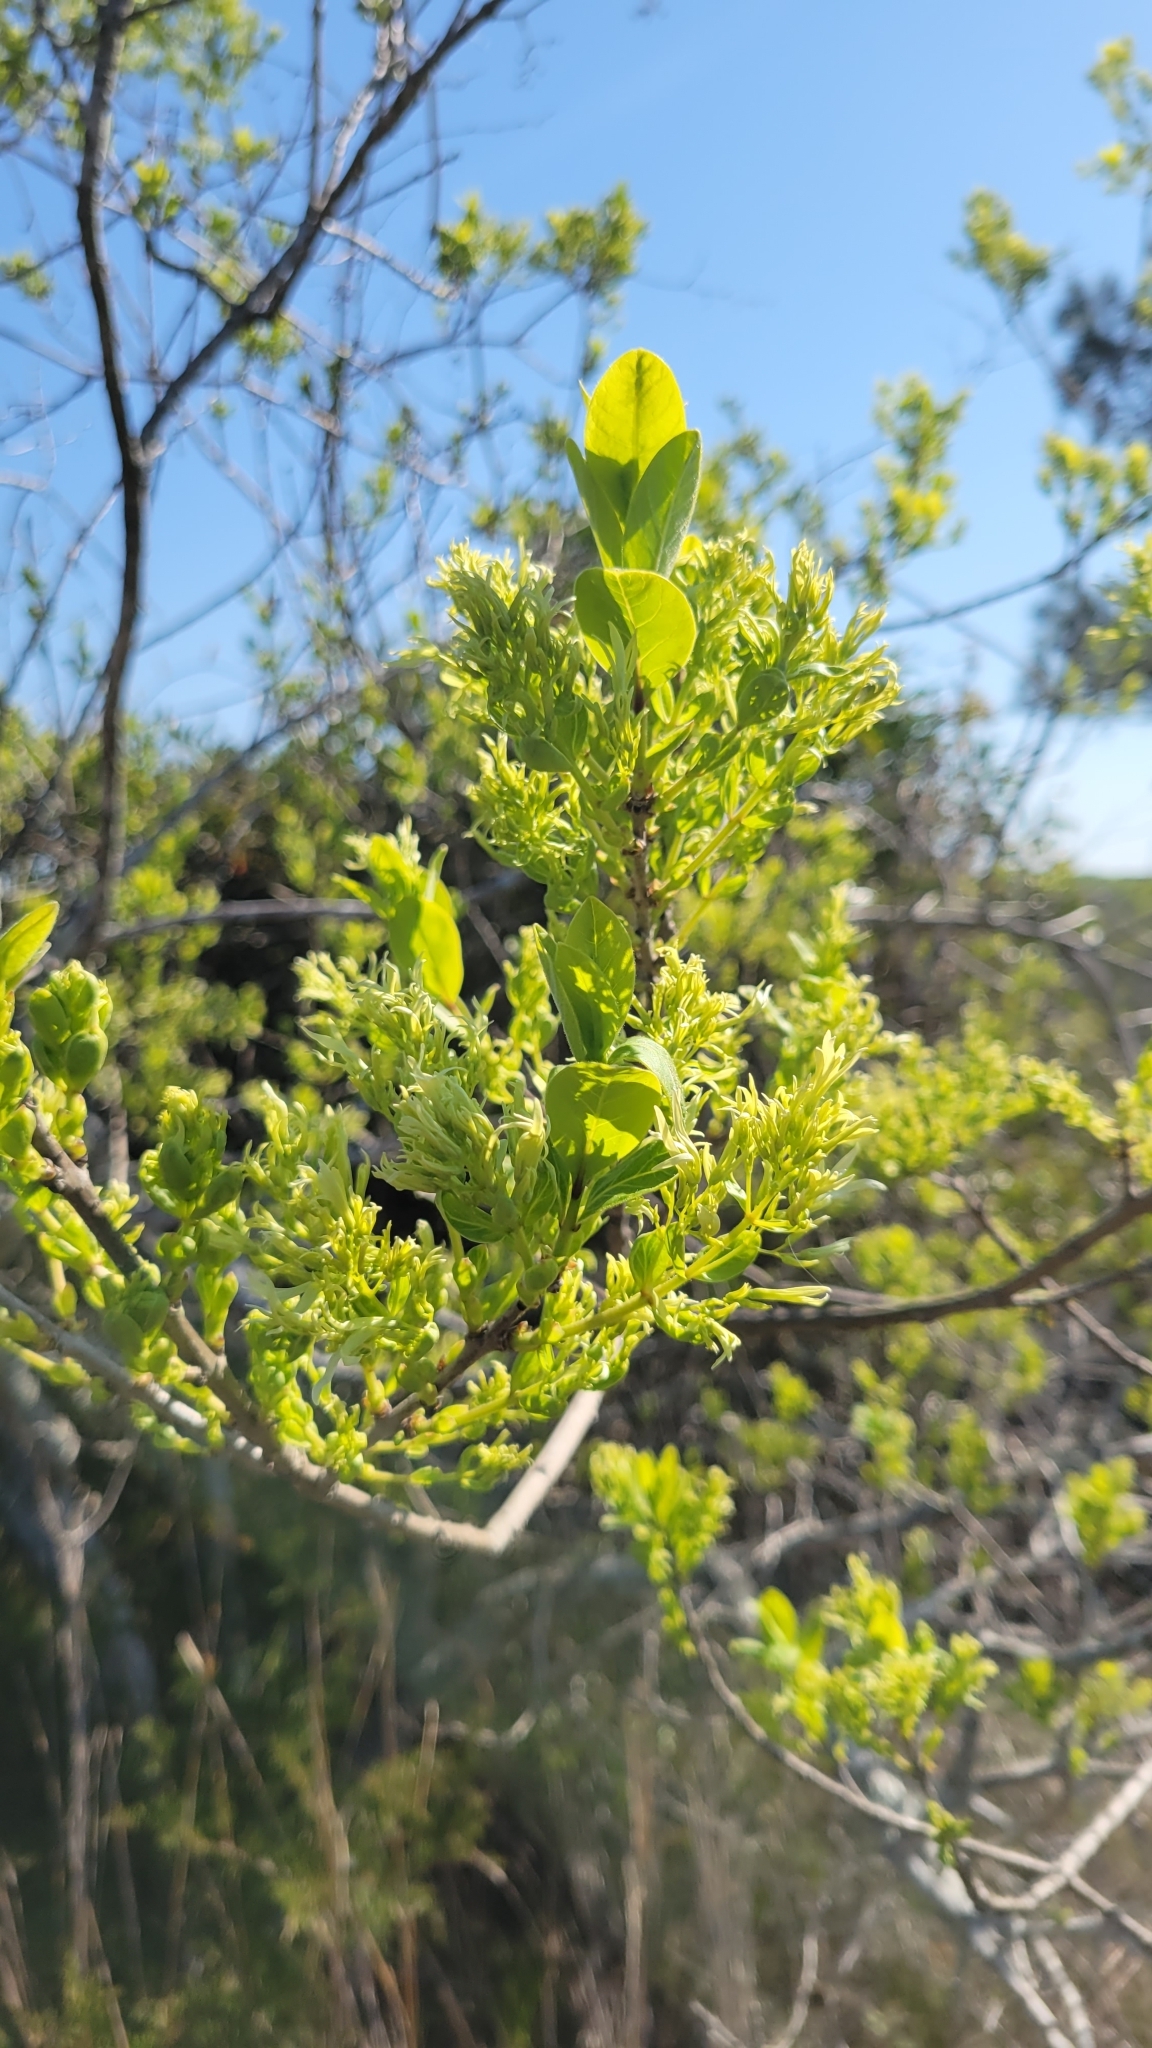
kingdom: Plantae
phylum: Tracheophyta
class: Magnoliopsida
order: Lamiales
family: Oleaceae
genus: Chionanthus
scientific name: Chionanthus virginicus
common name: American fringetree
